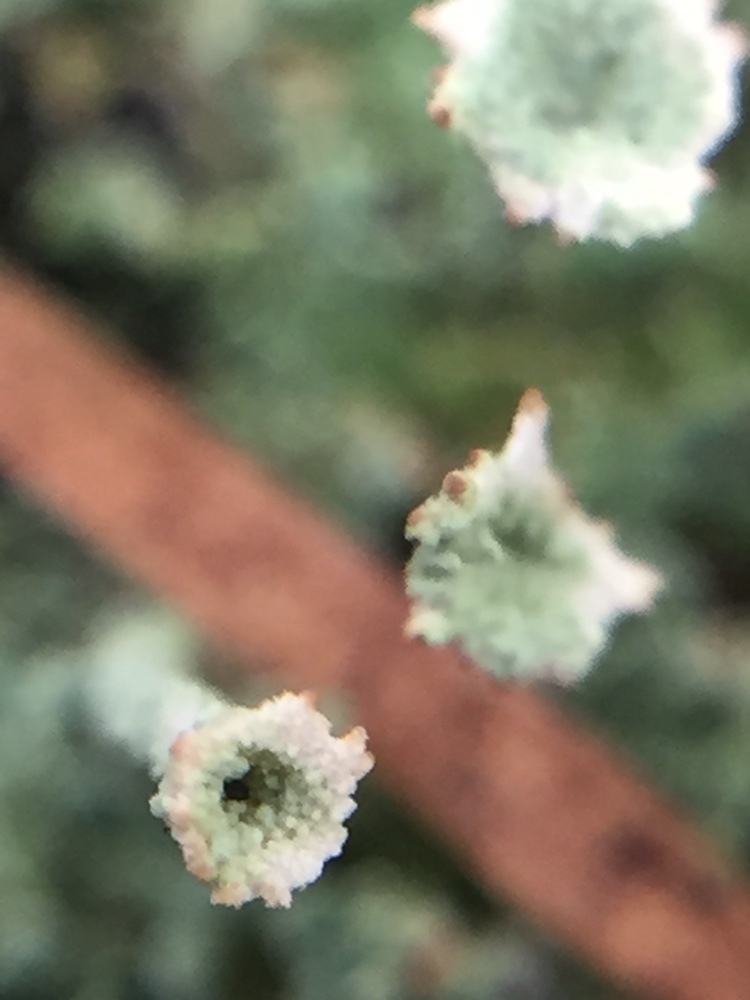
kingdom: Fungi
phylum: Ascomycota
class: Lecanoromycetes
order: Lecanorales
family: Cladoniaceae
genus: Cladonia
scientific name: Cladonia fimbriata
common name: Powdered trumpet lichen
